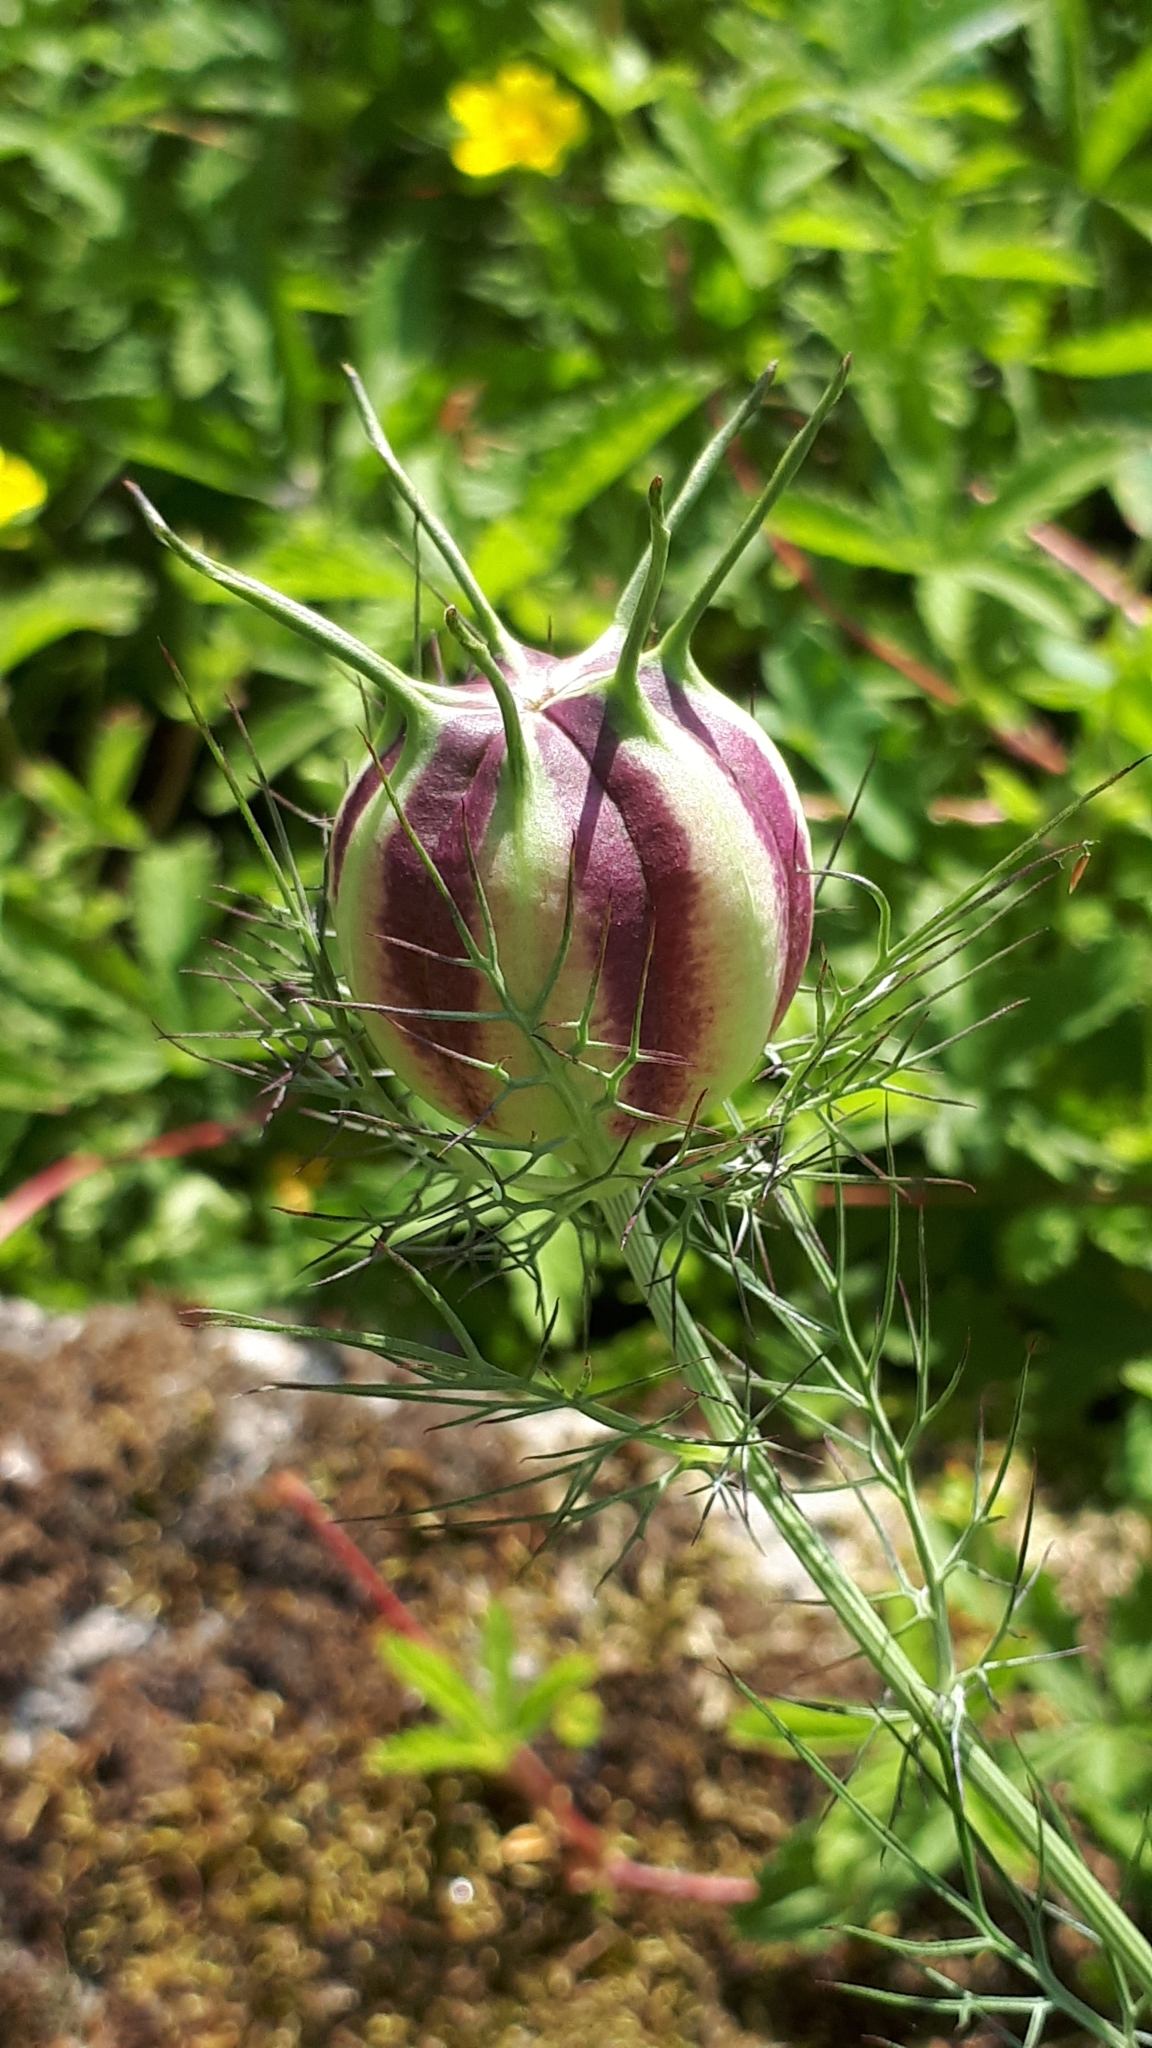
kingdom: Plantae
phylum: Tracheophyta
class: Magnoliopsida
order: Ranunculales
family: Ranunculaceae
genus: Nigella
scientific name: Nigella damascena
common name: Love-in-a-mist
